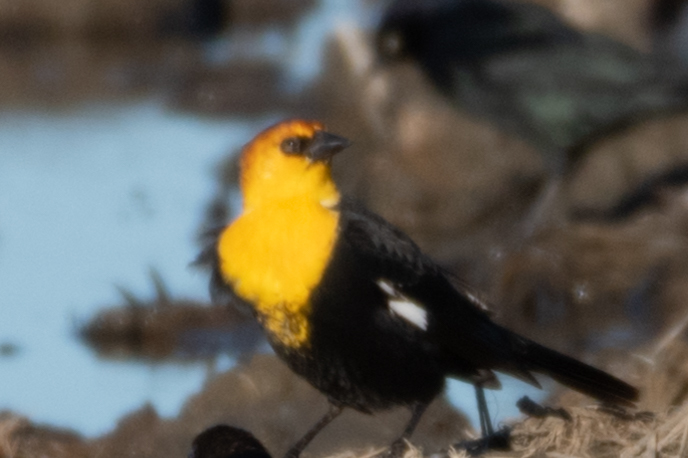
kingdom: Animalia
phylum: Chordata
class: Aves
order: Passeriformes
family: Icteridae
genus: Xanthocephalus
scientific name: Xanthocephalus xanthocephalus
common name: Yellow-headed blackbird
